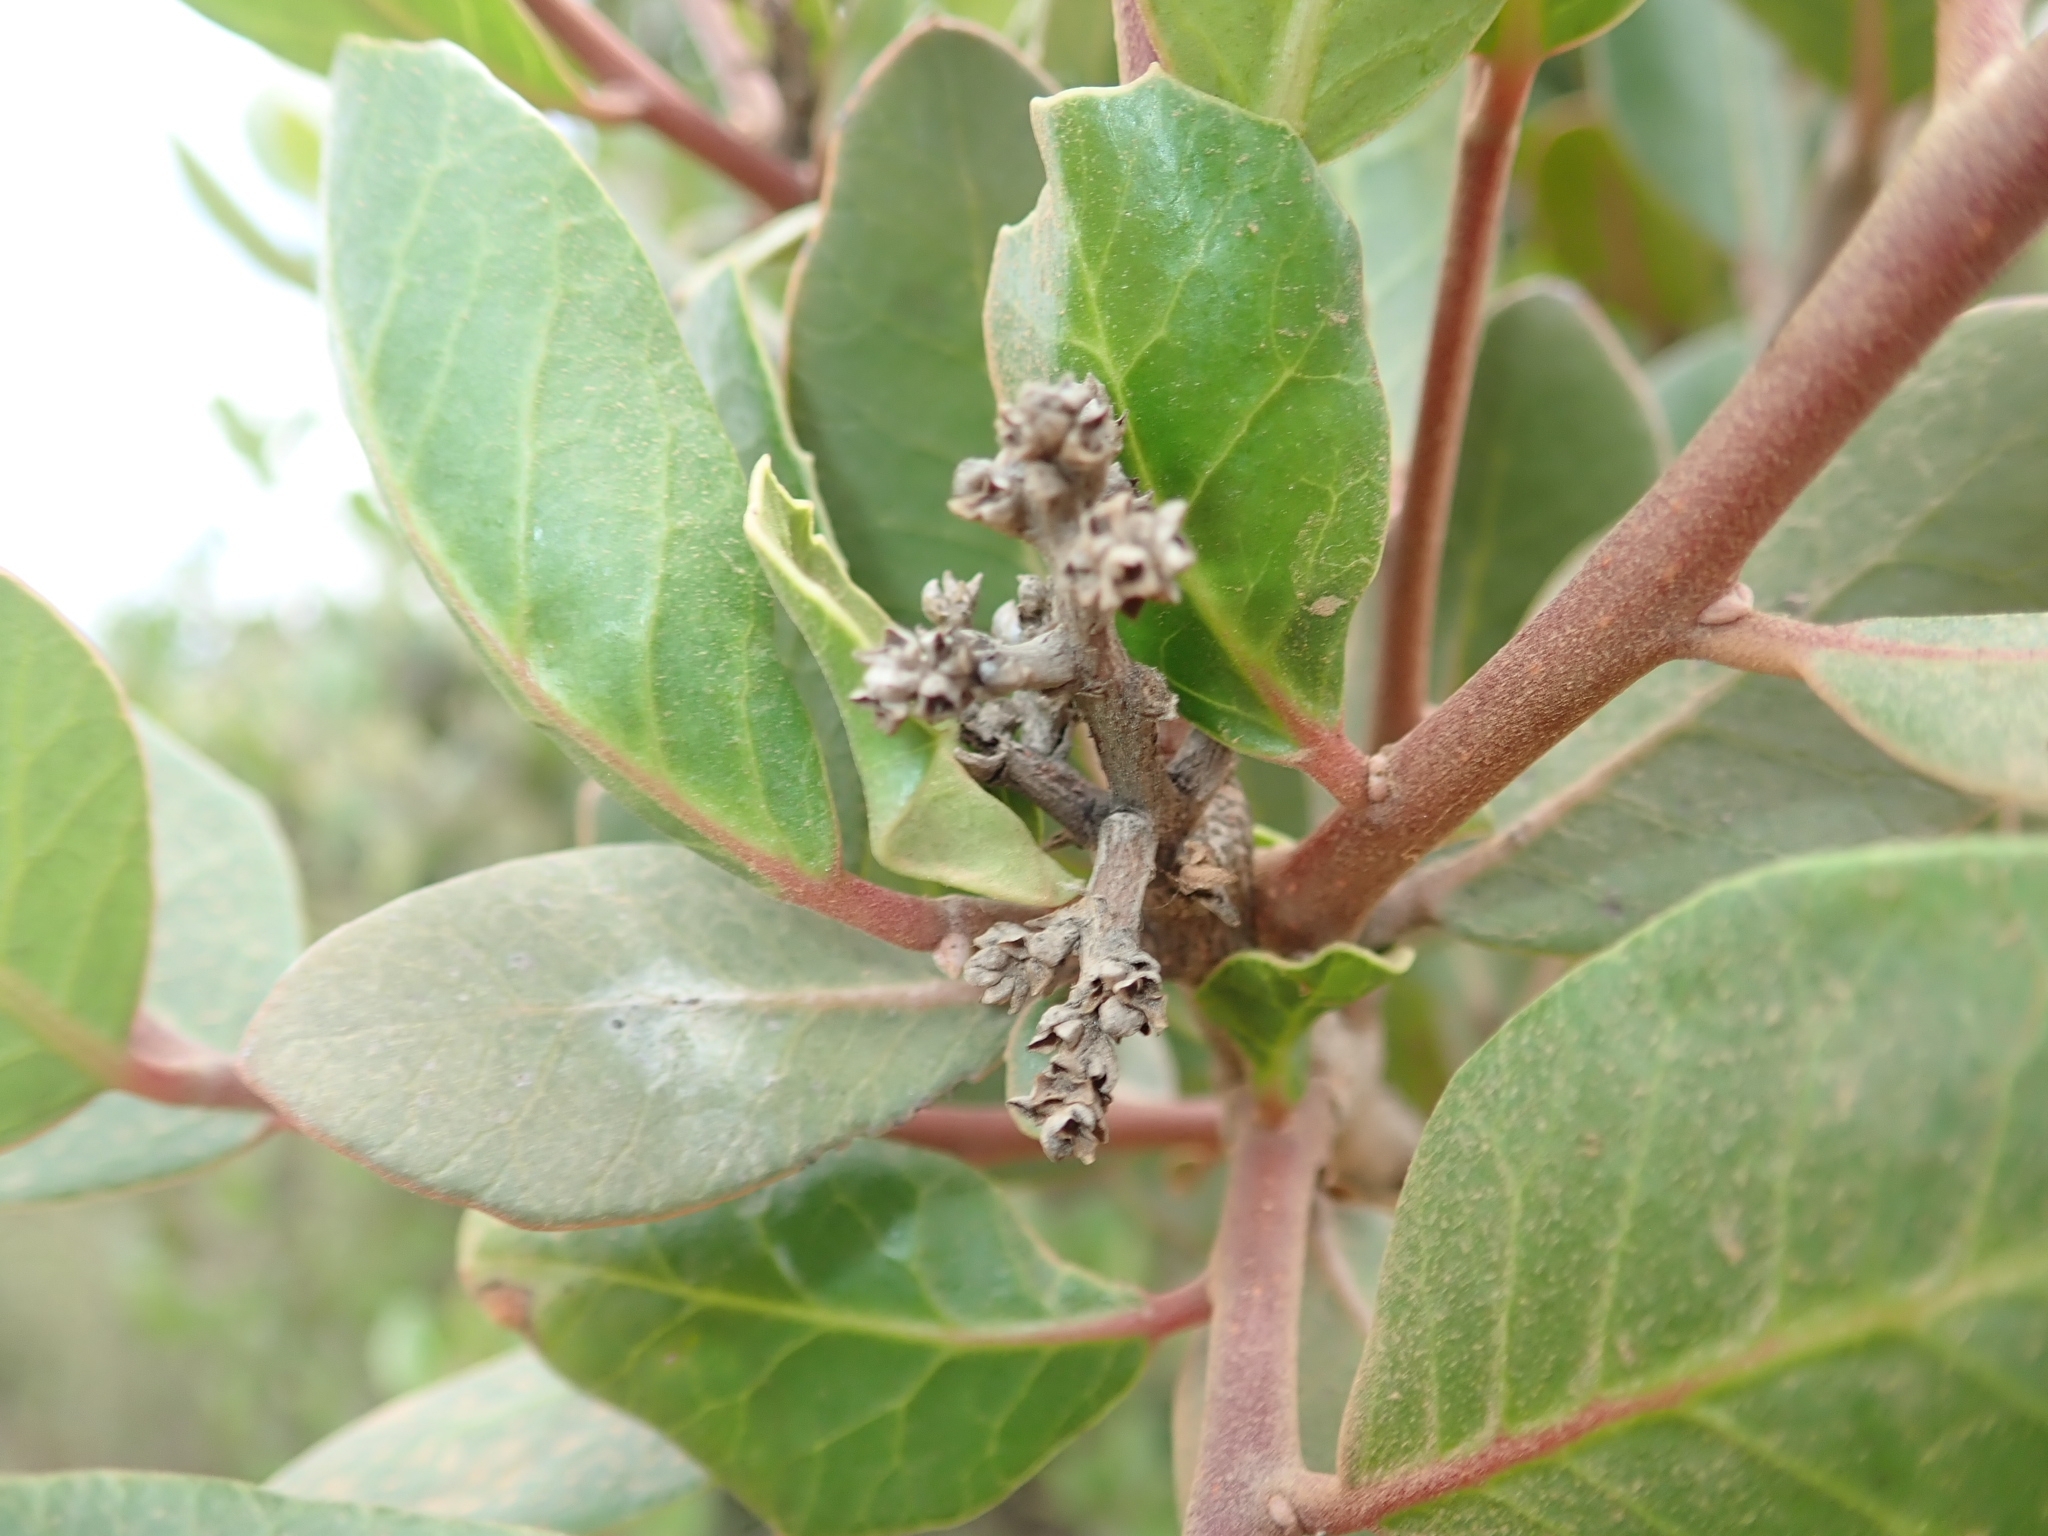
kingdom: Plantae
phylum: Tracheophyta
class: Magnoliopsida
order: Sapindales
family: Anacardiaceae
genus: Rhus
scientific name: Rhus integrifolia
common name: Lemonade sumac
